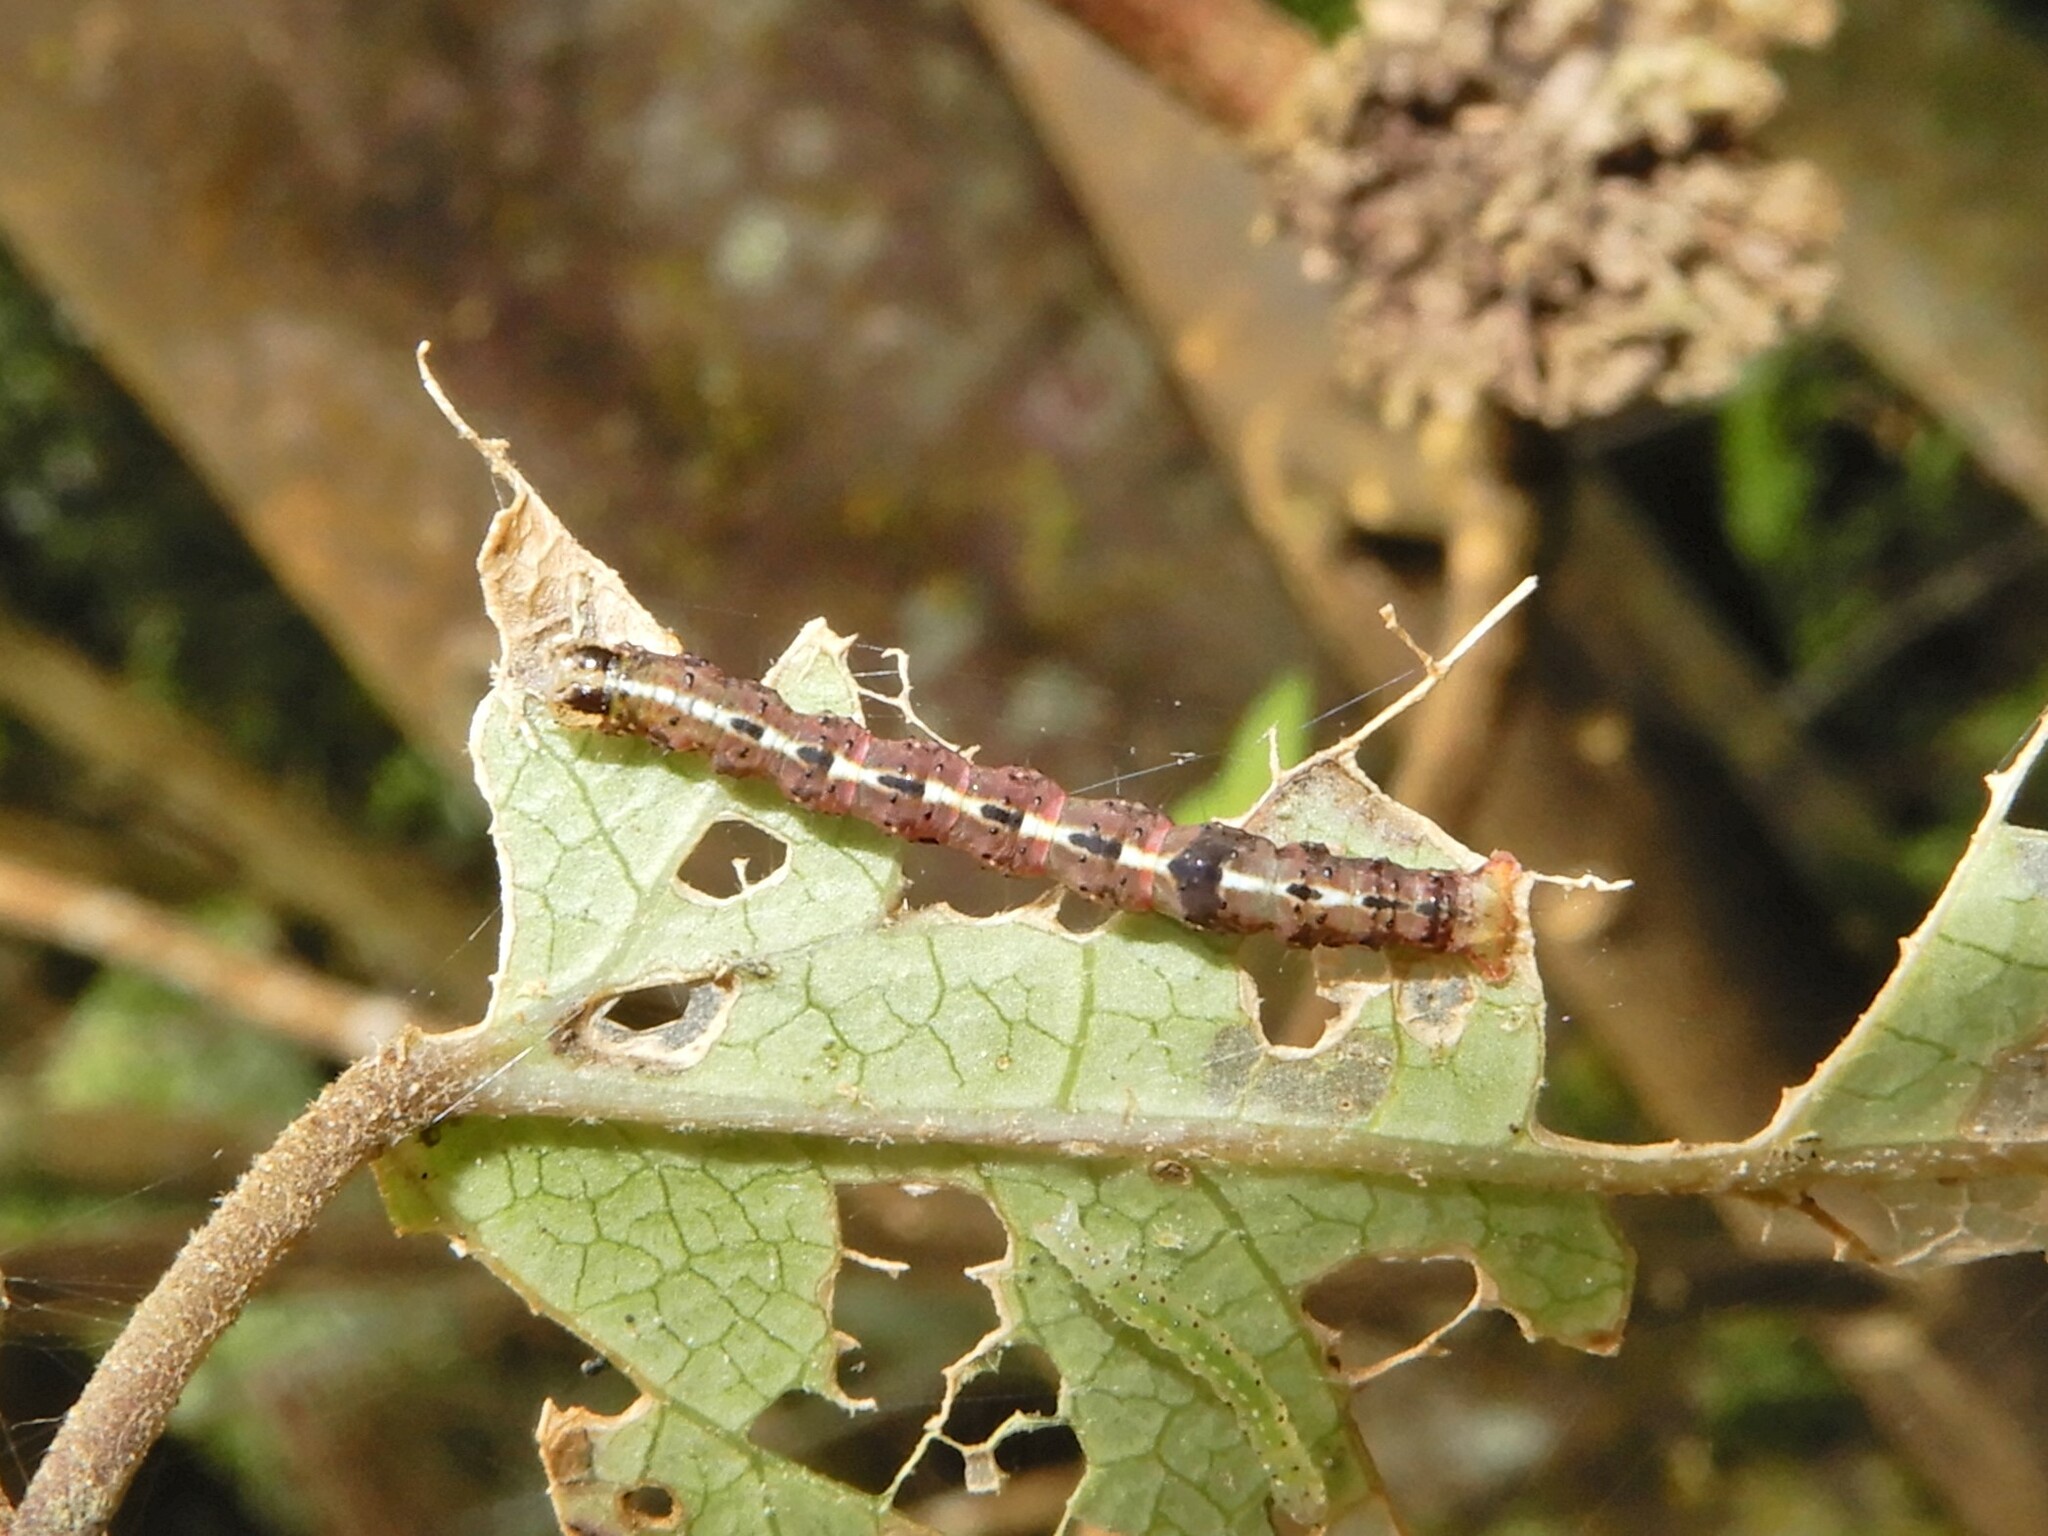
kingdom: Animalia
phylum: Arthropoda
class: Insecta
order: Lepidoptera
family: Geometridae
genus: Epiphryne
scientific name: Epiphryne undosata
